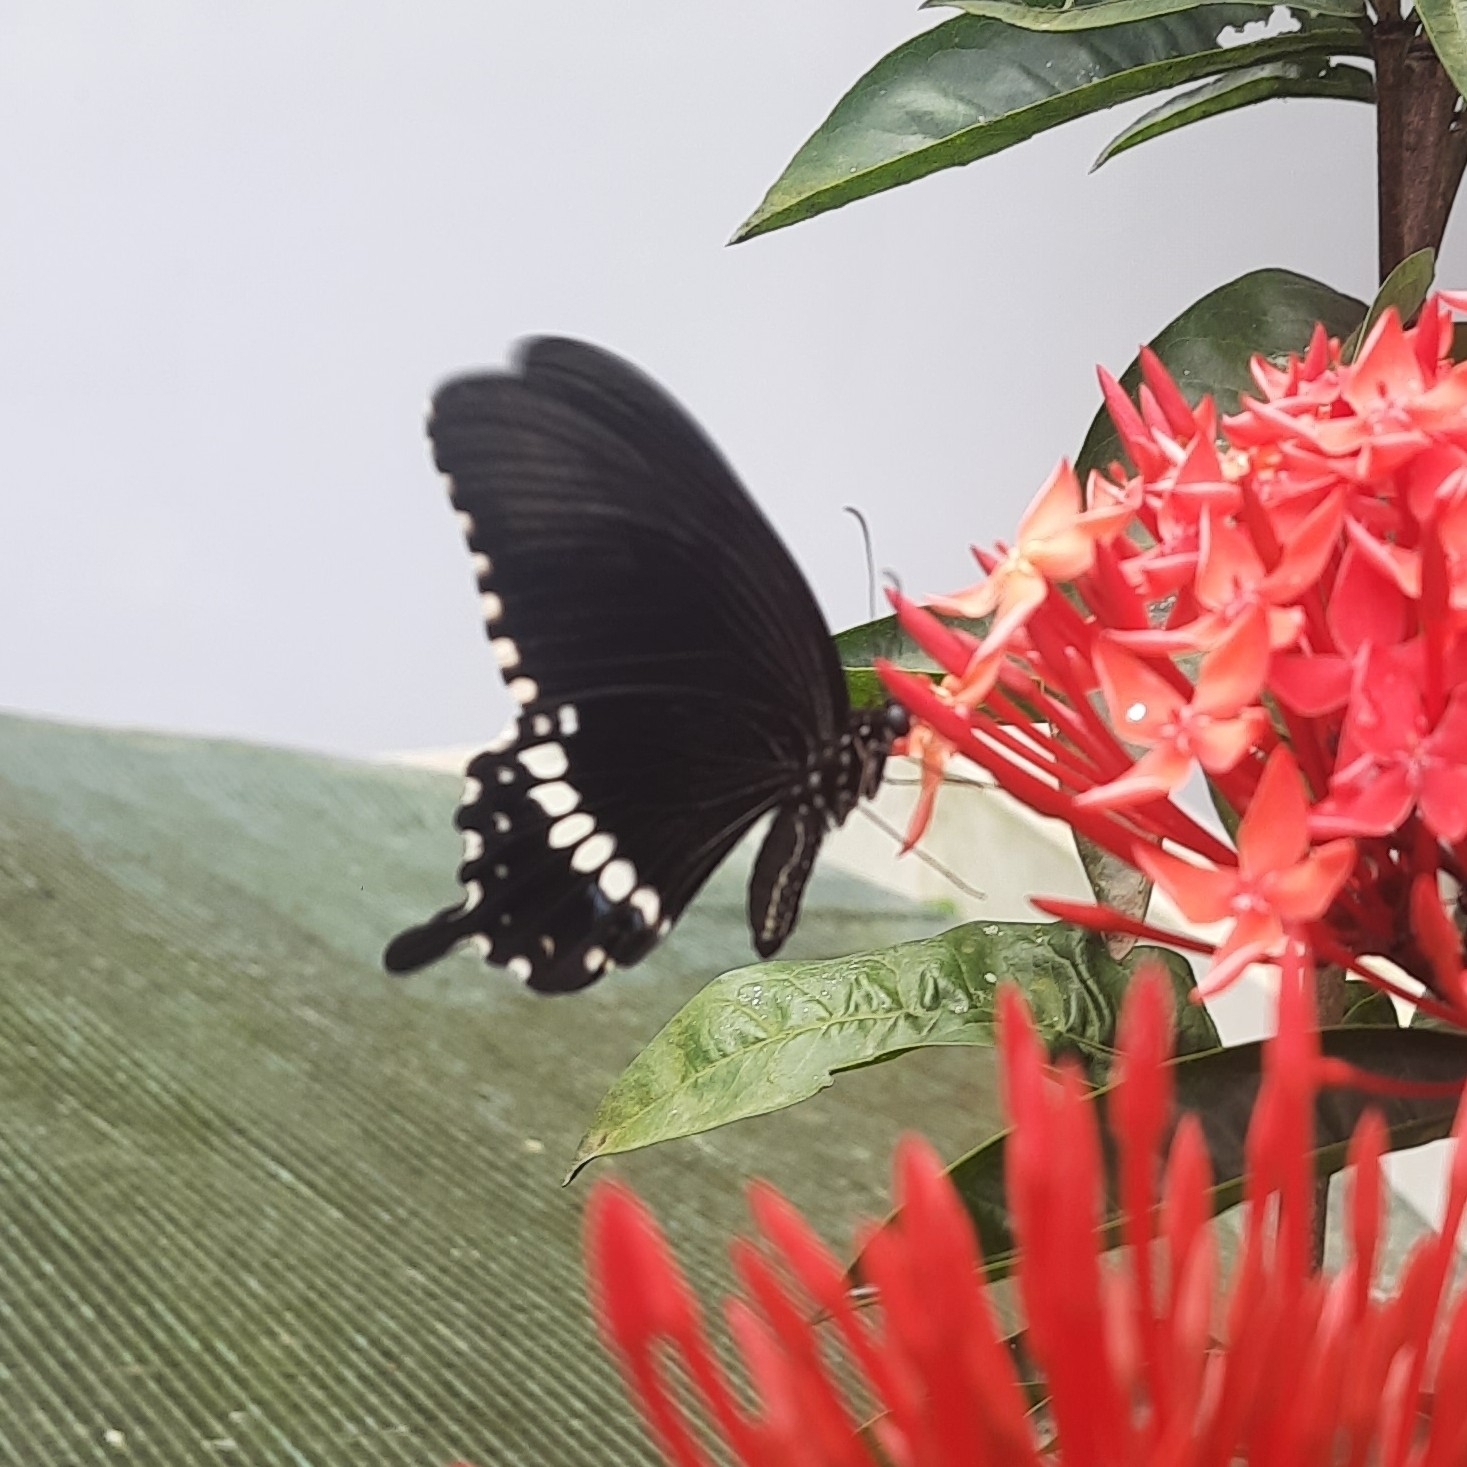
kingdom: Animalia
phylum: Arthropoda
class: Insecta
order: Lepidoptera
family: Papilionidae
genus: Papilio
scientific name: Papilio polytes
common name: Common mormon
